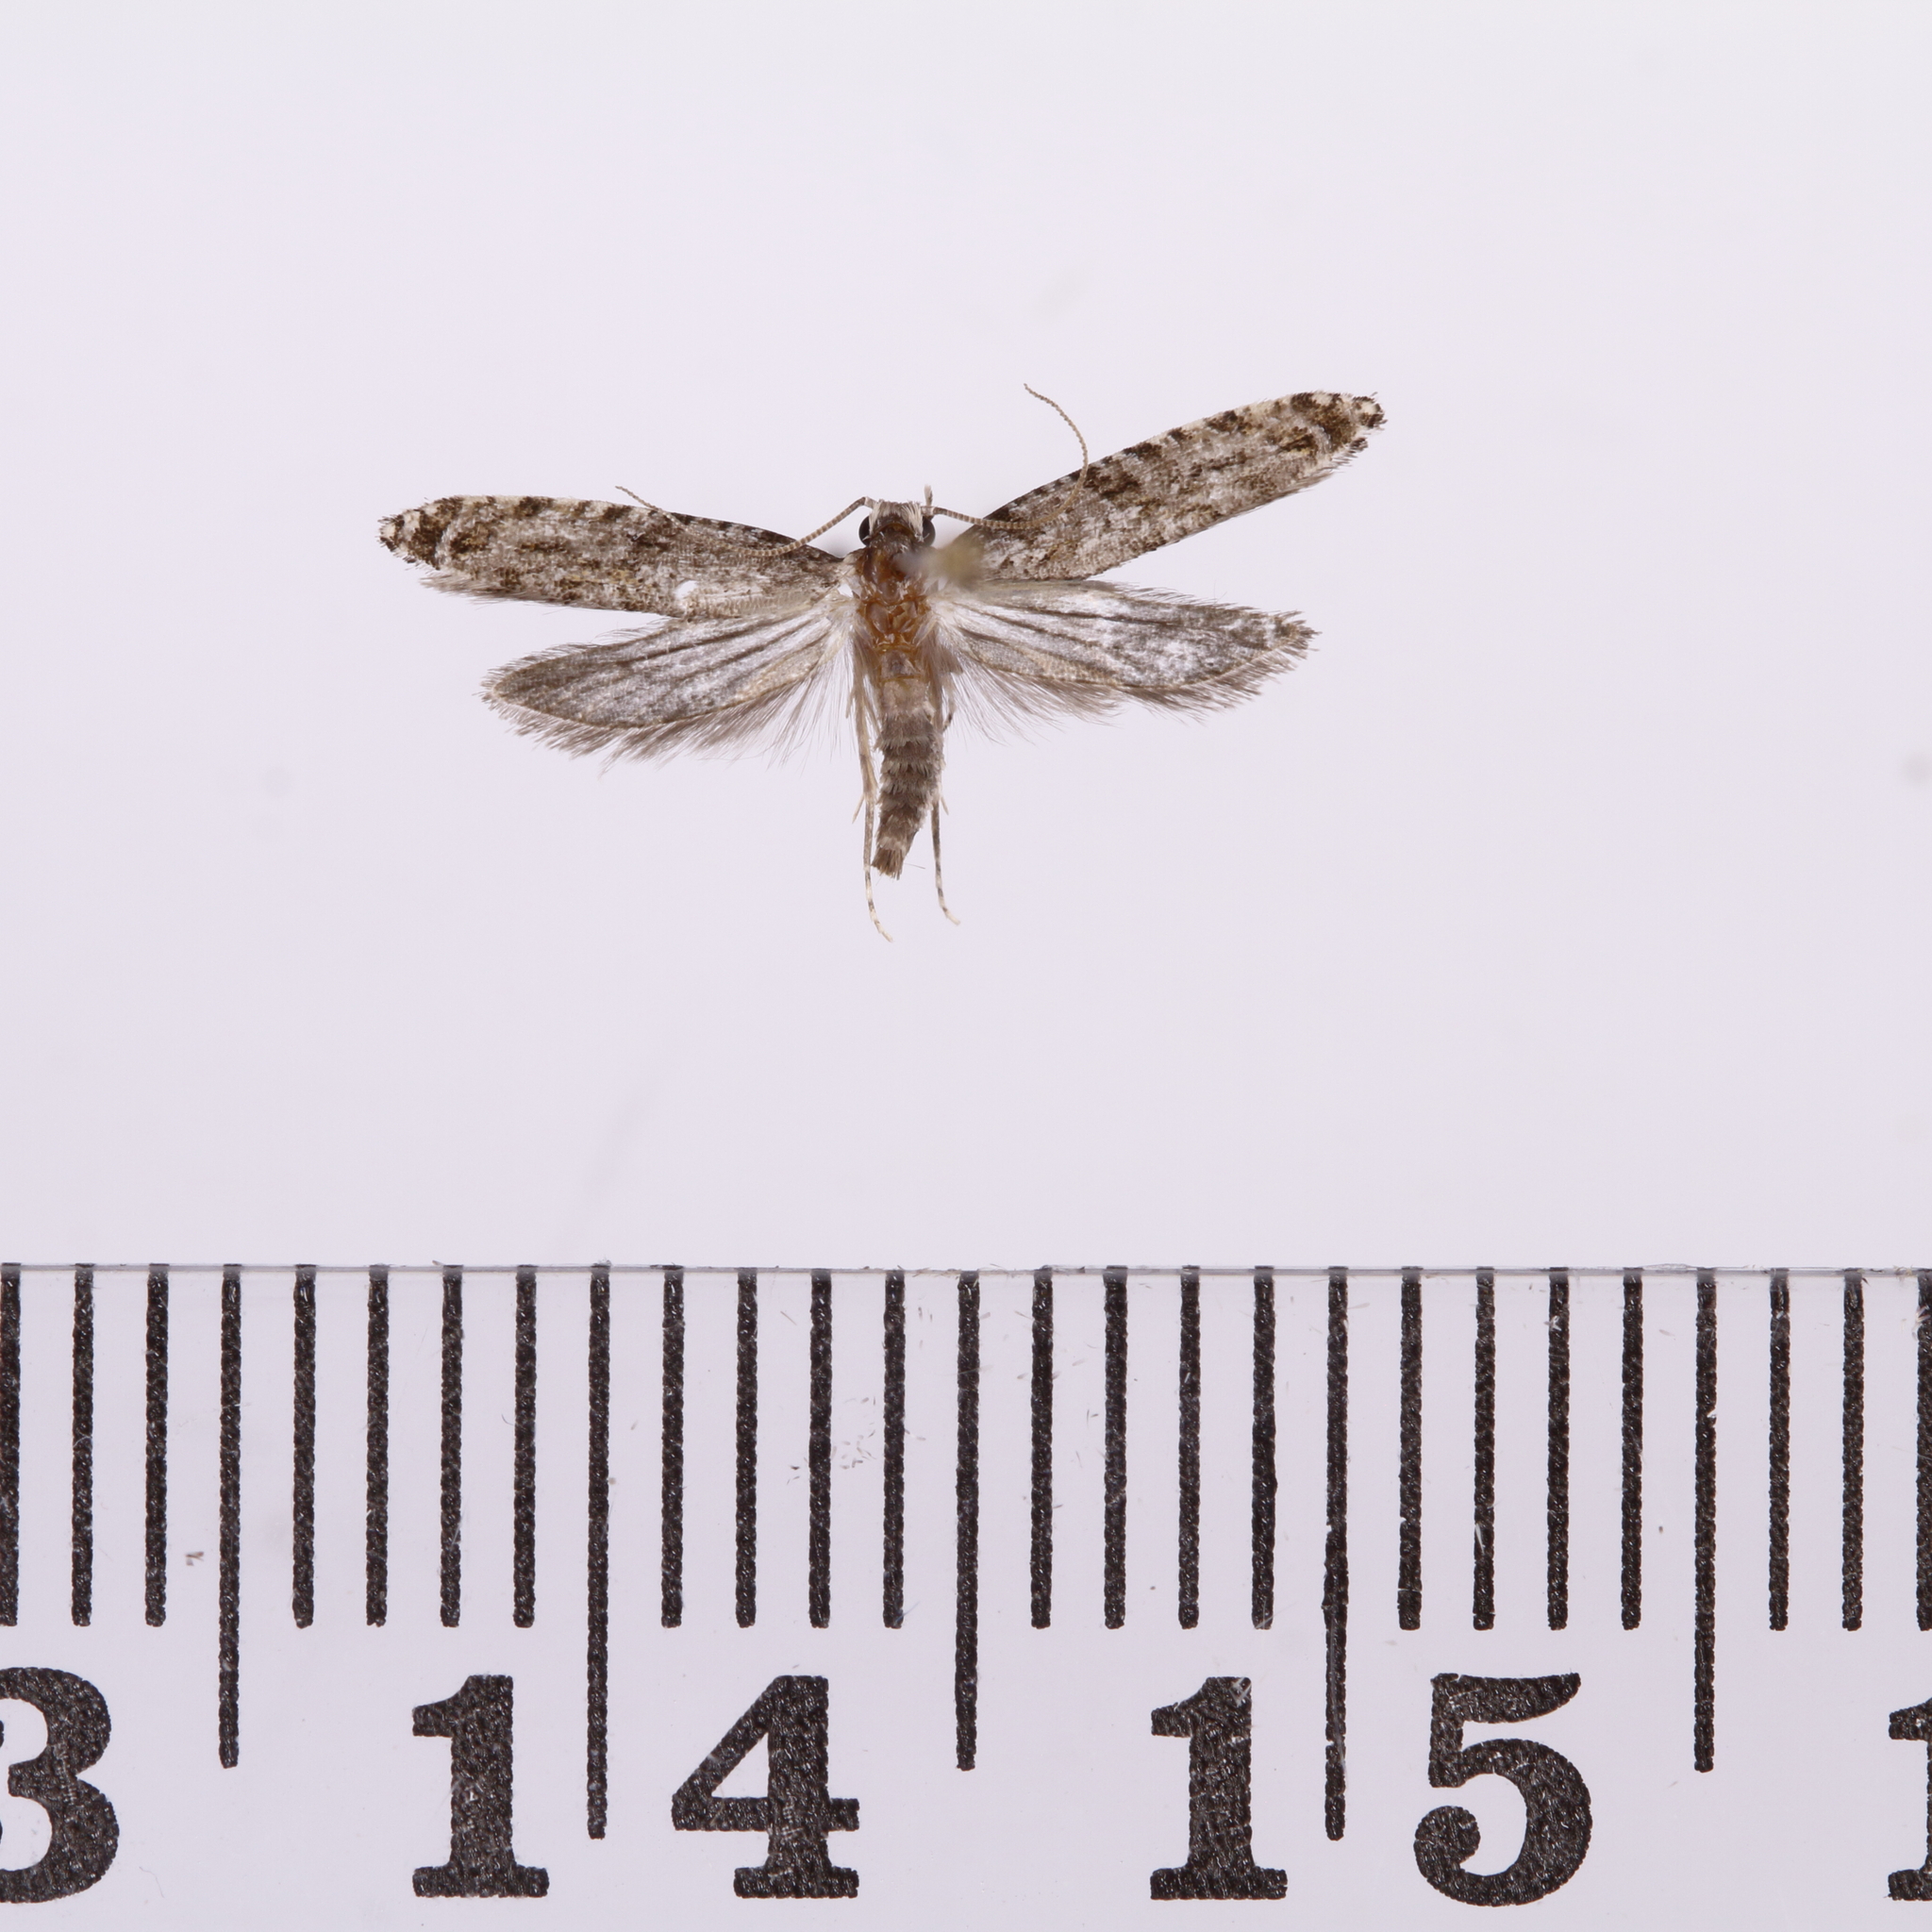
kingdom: Animalia
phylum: Arthropoda
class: Insecta
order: Lepidoptera
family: Tineidae
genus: Archyala
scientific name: Archyala paraglypta
